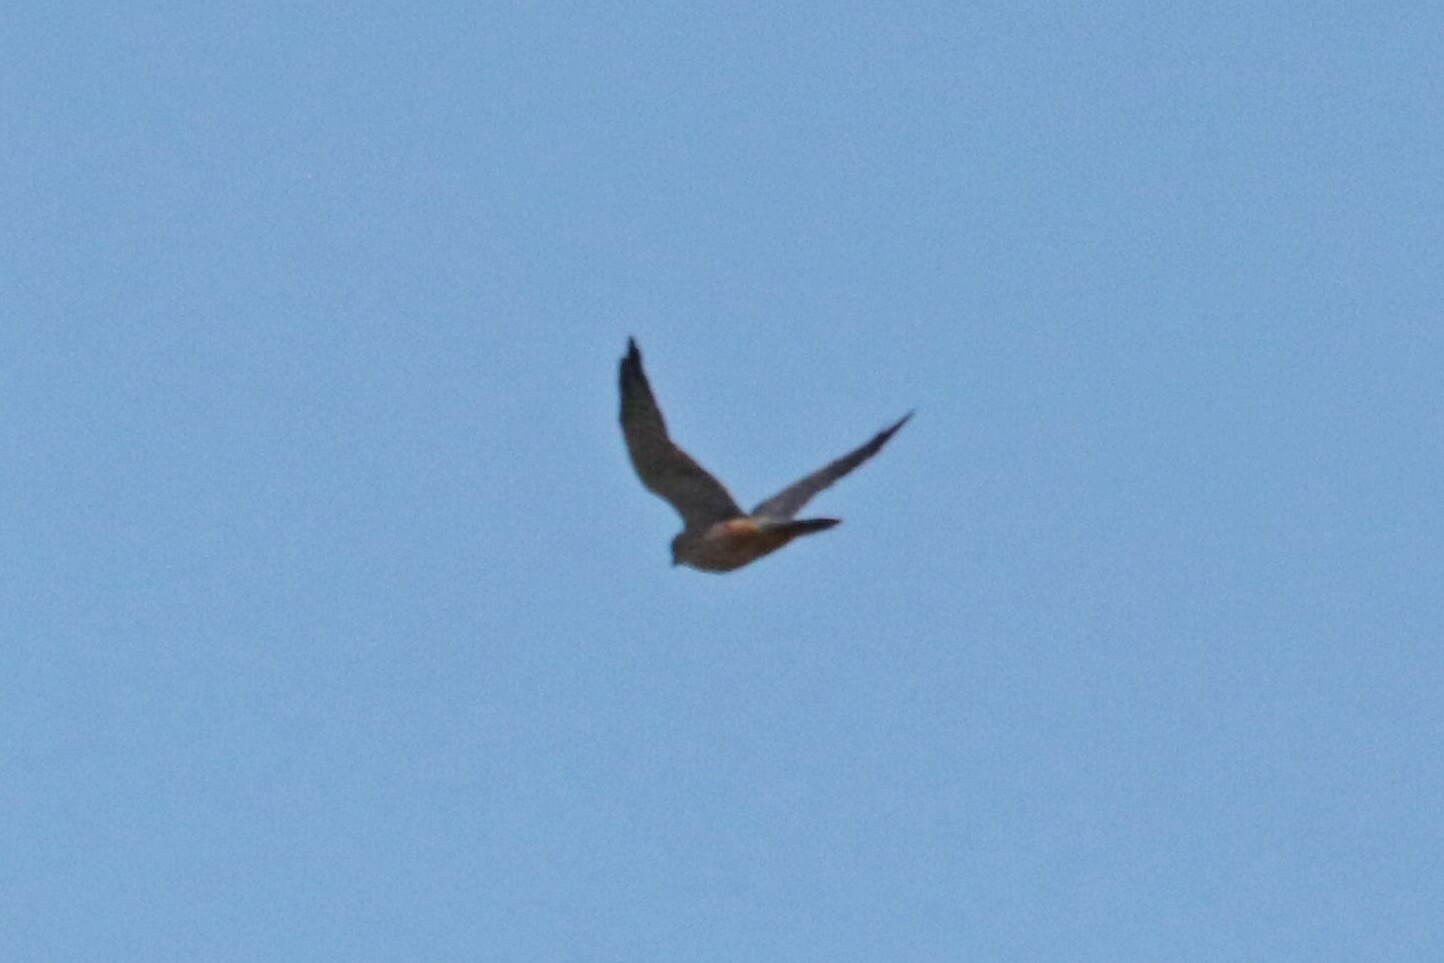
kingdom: Animalia
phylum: Chordata
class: Aves
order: Falconiformes
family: Falconidae
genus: Falco
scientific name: Falco subbuteo
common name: Eurasian hobby
